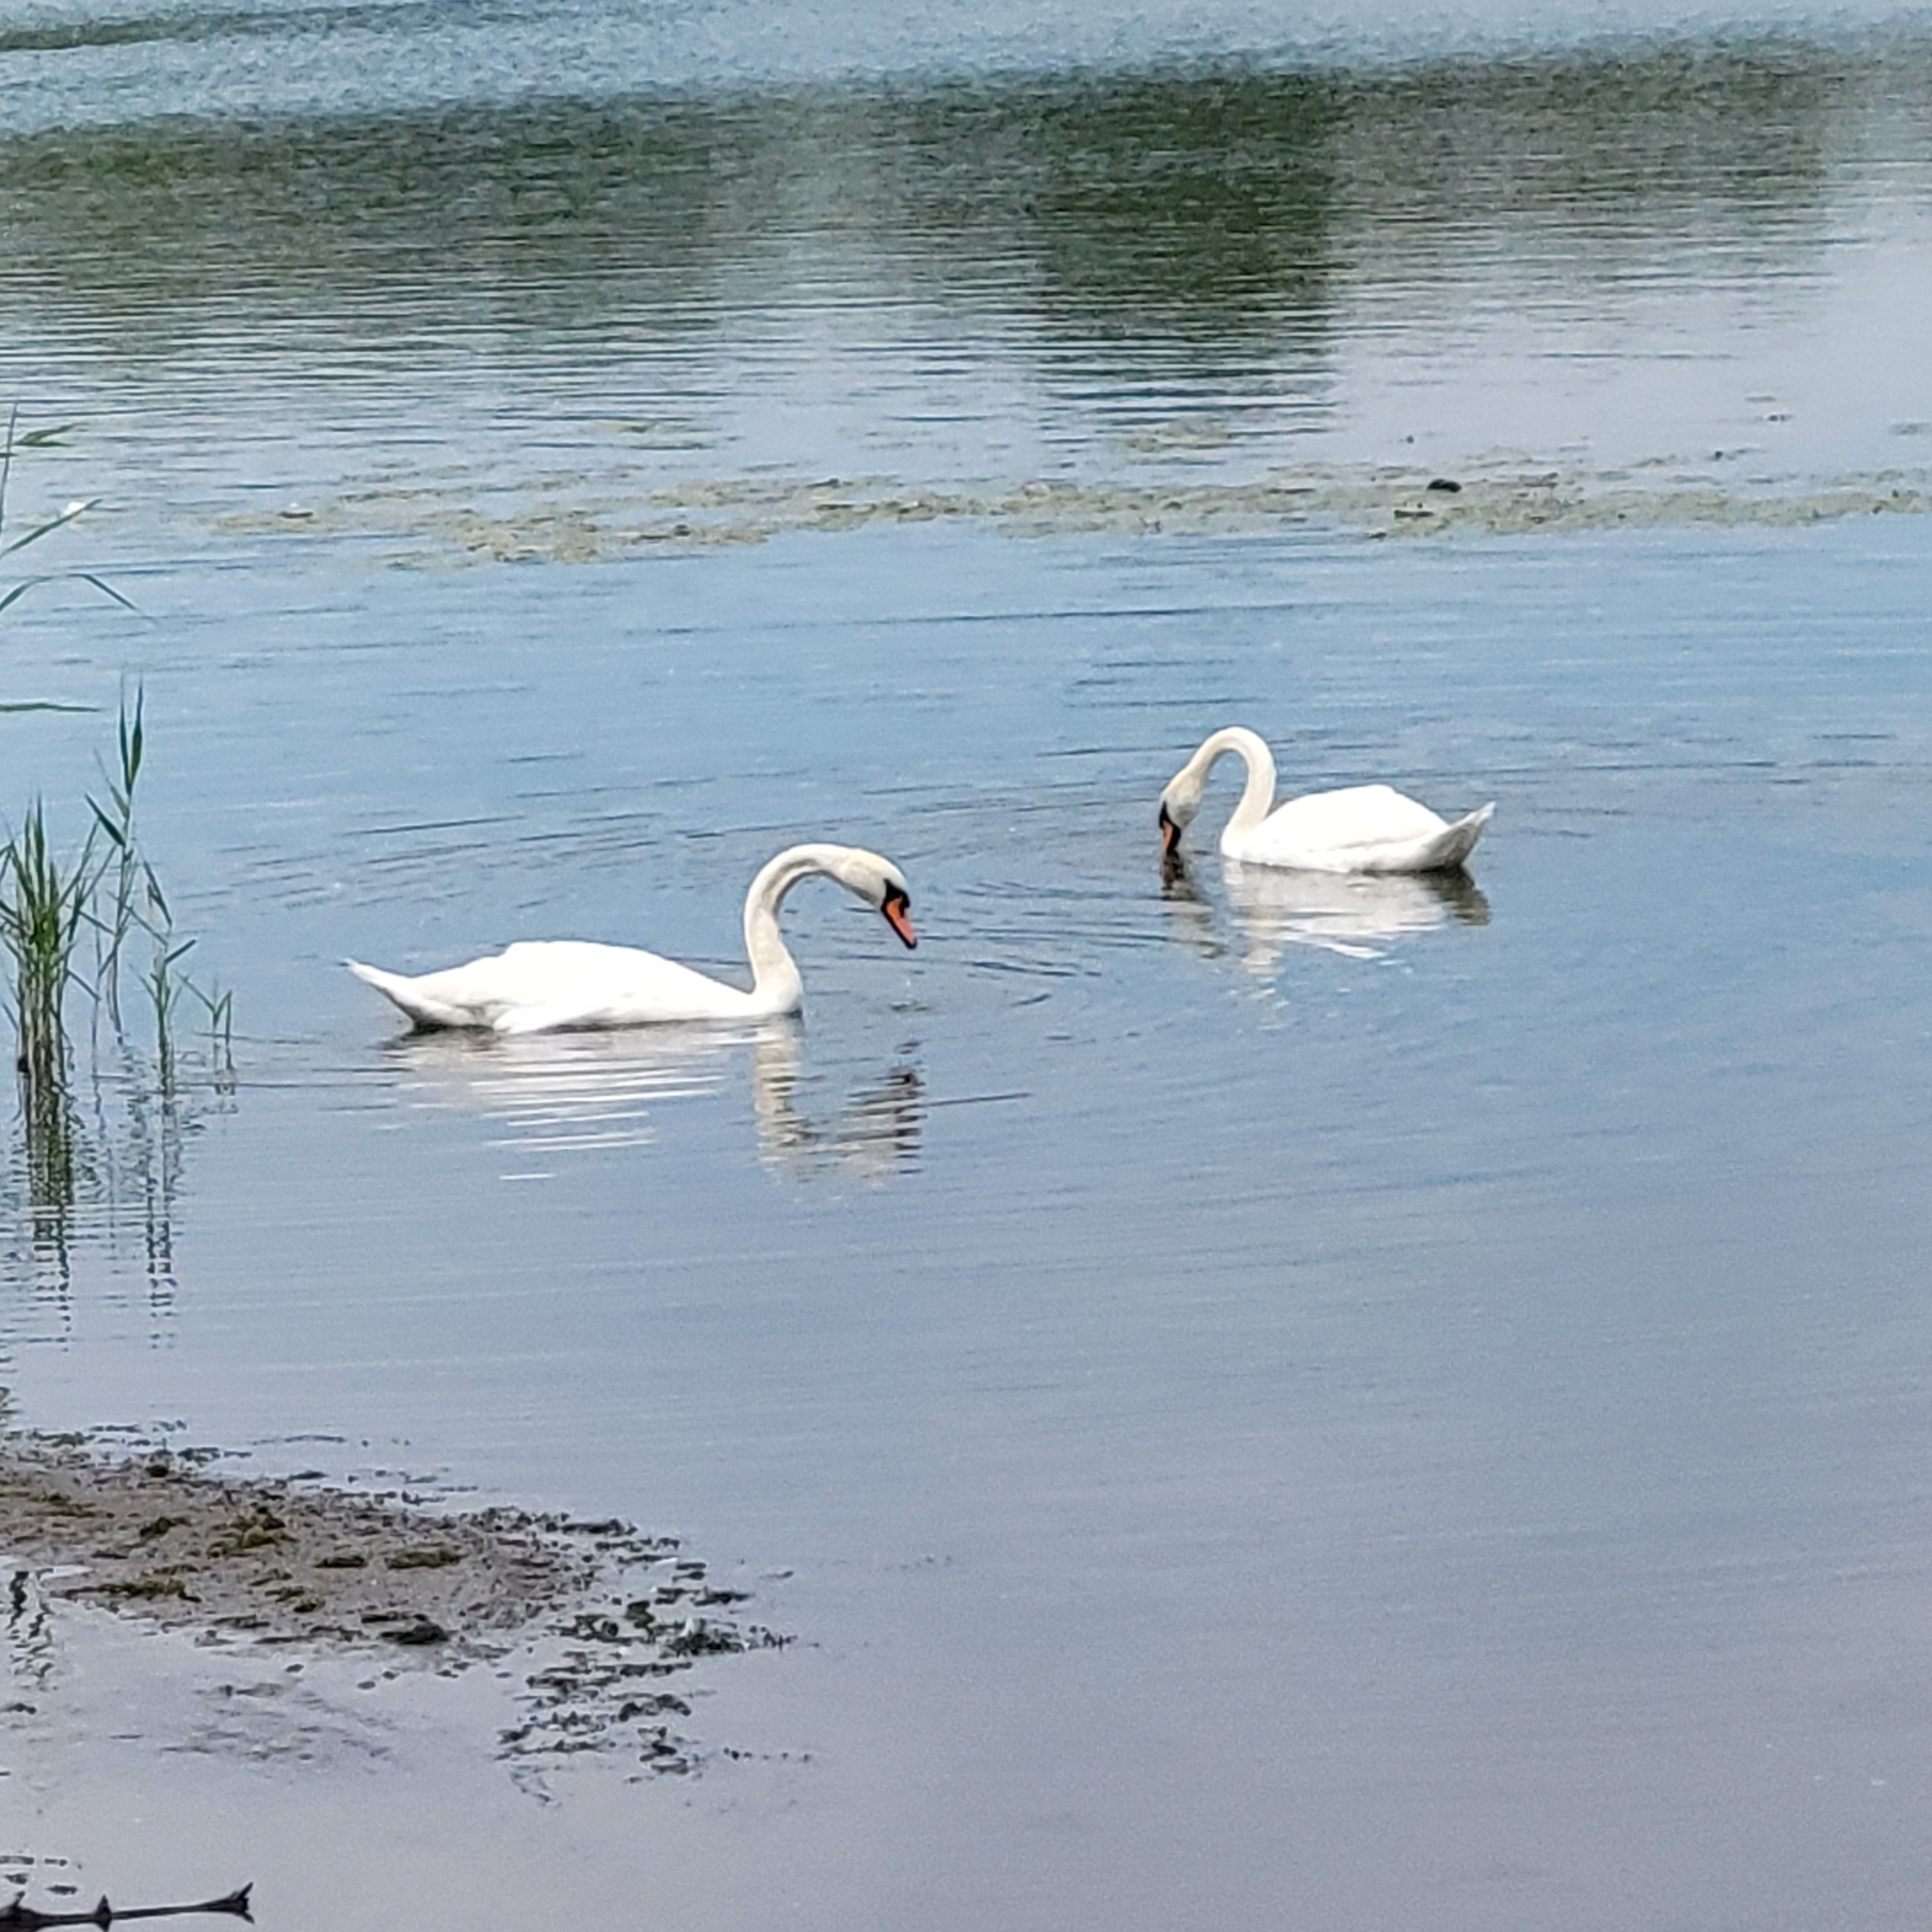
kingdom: Animalia
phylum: Chordata
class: Aves
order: Anseriformes
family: Anatidae
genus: Cygnus
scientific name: Cygnus olor
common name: Mute swan
